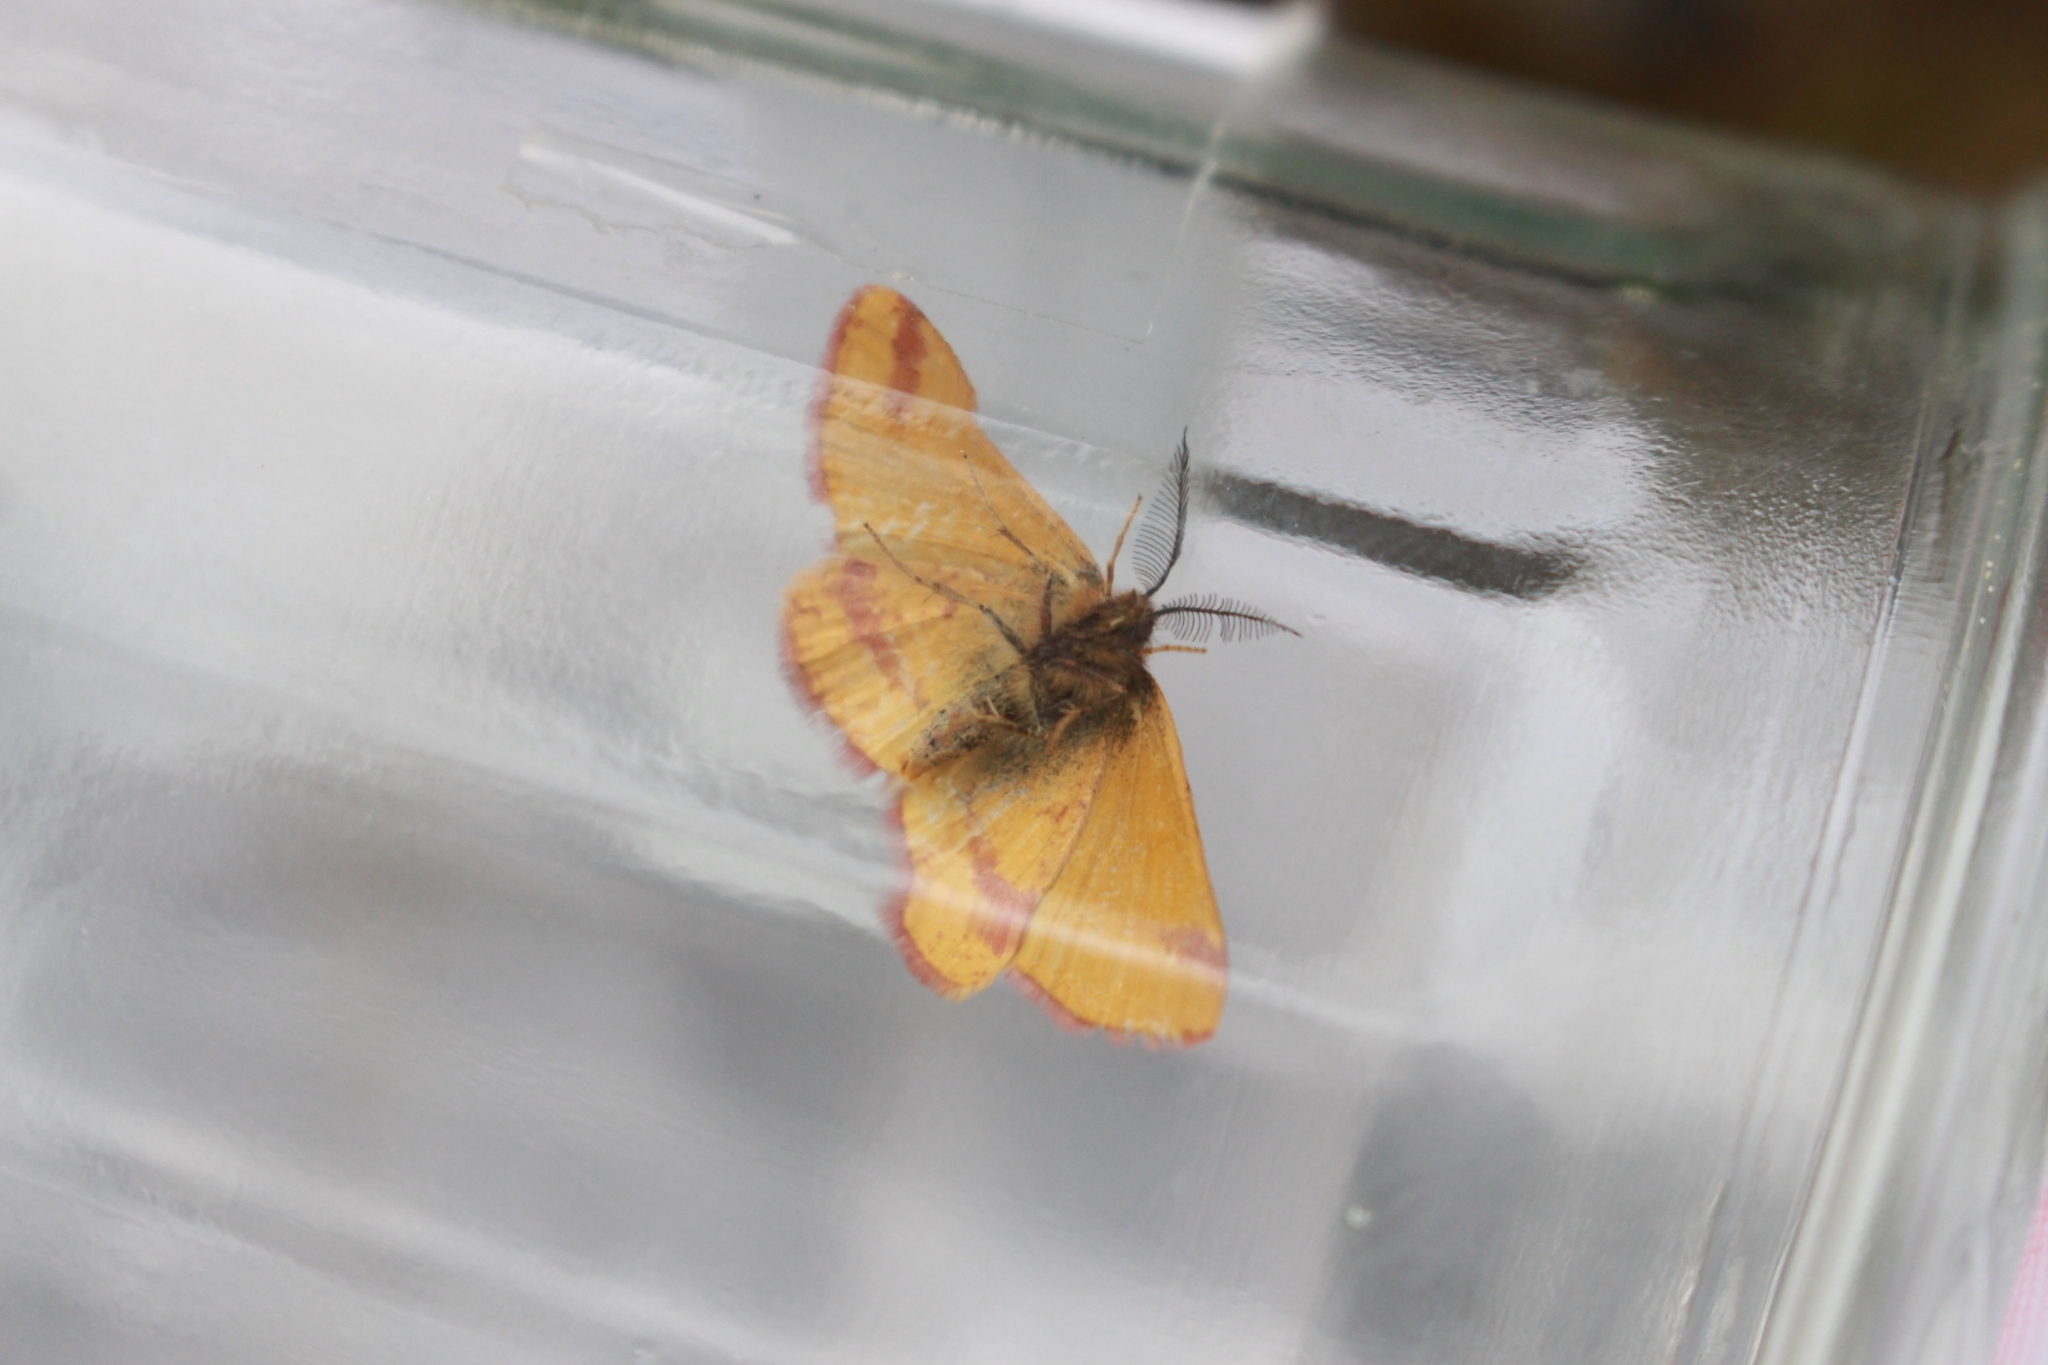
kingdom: Animalia
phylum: Arthropoda
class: Insecta
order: Lepidoptera
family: Geometridae
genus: Lythria
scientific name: Lythria purpuraria
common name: Purple-barred yellow
